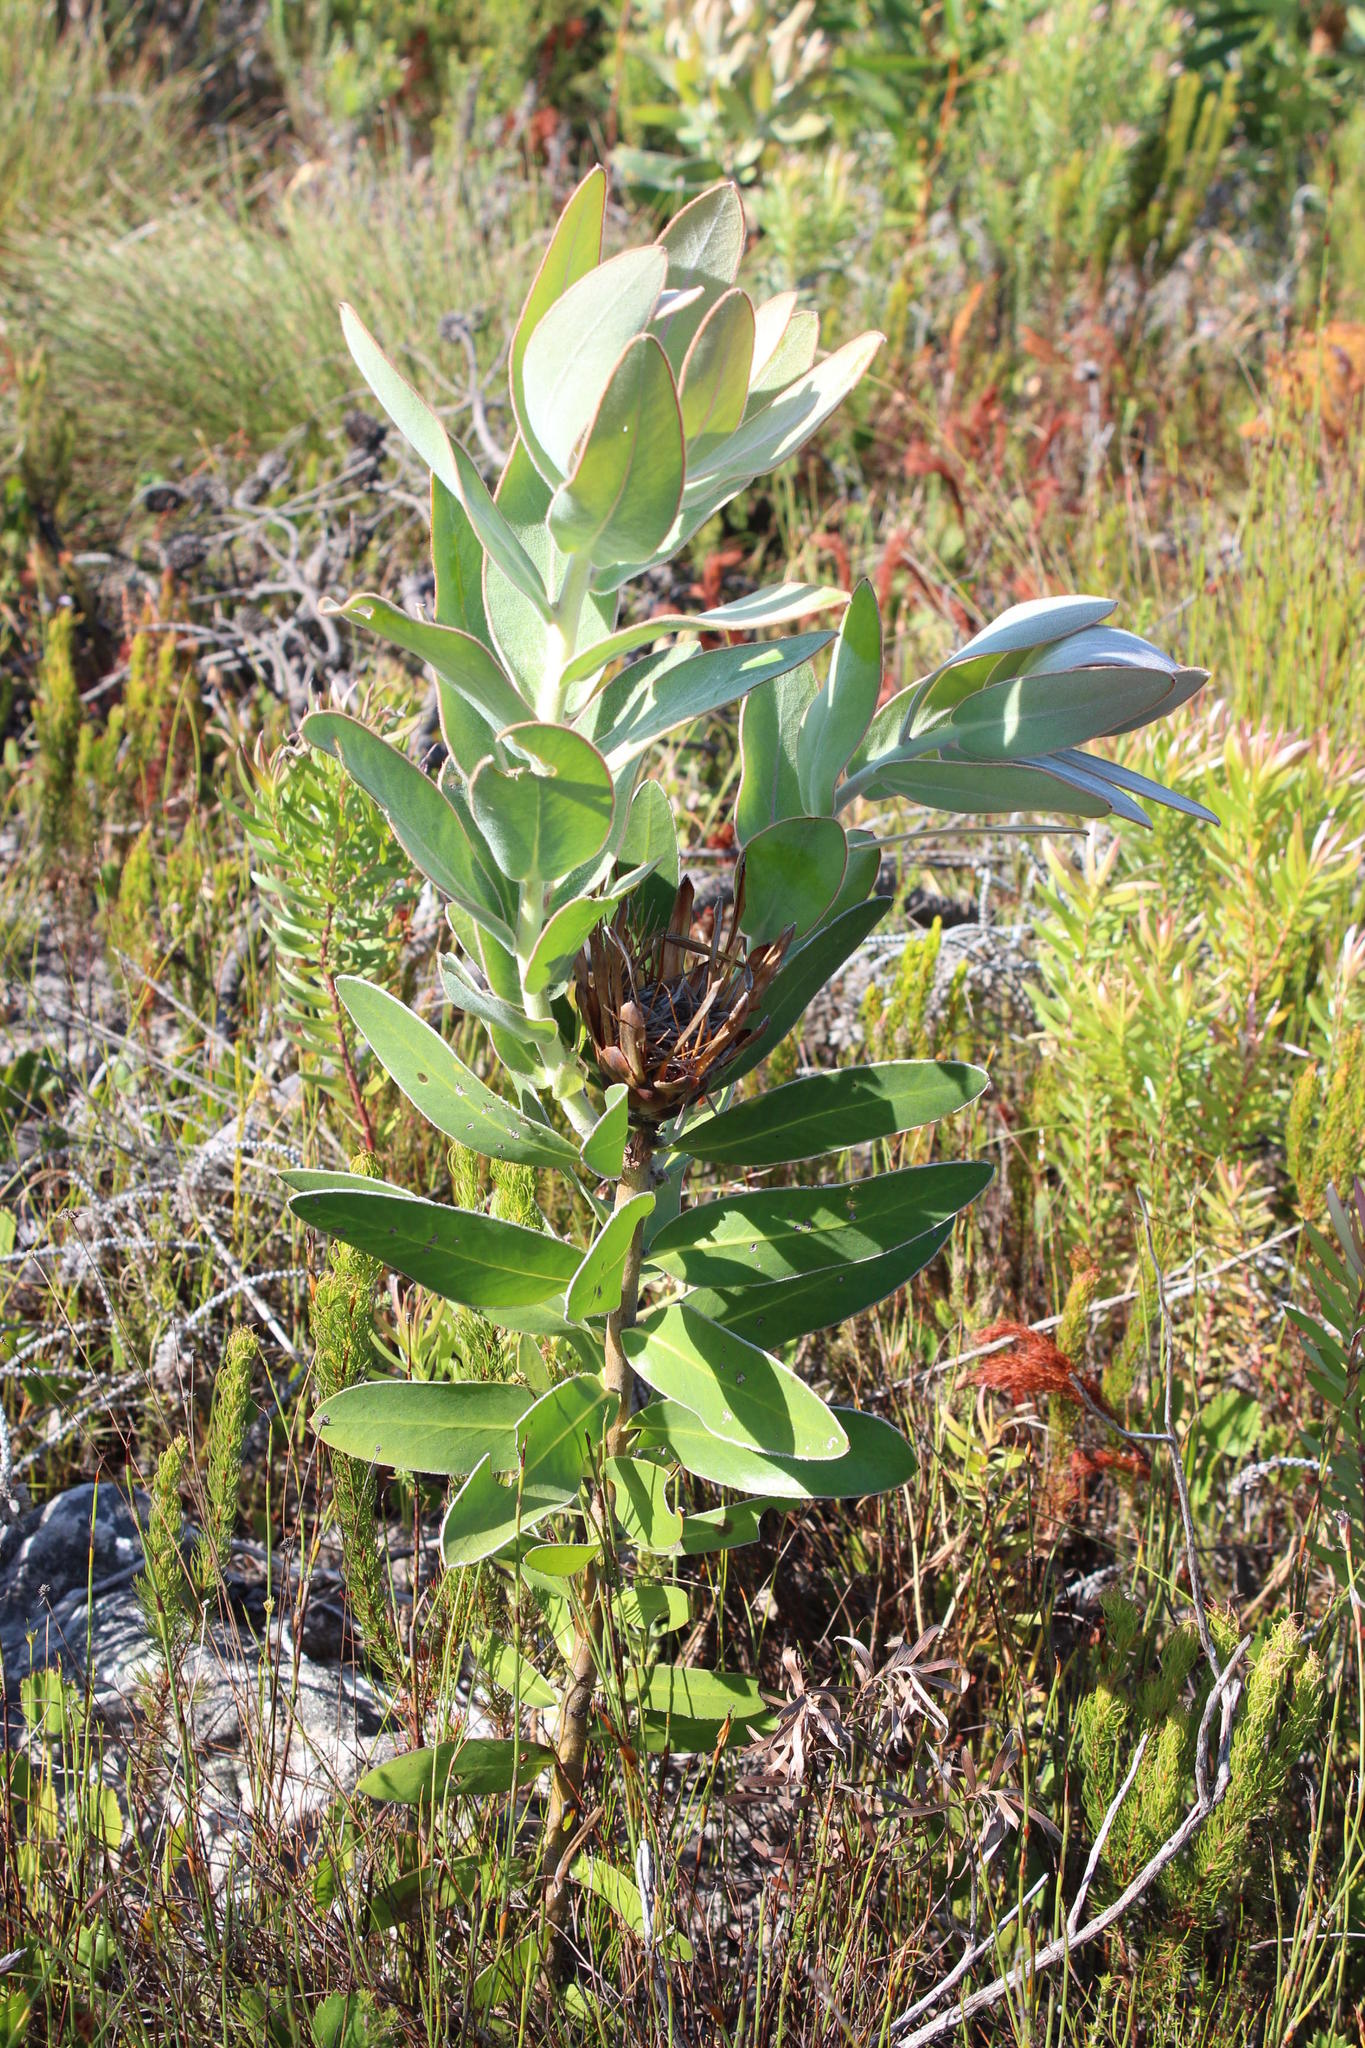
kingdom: Plantae
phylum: Tracheophyta
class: Magnoliopsida
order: Proteales
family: Proteaceae
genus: Protea
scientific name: Protea compacta
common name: Bot river protea
